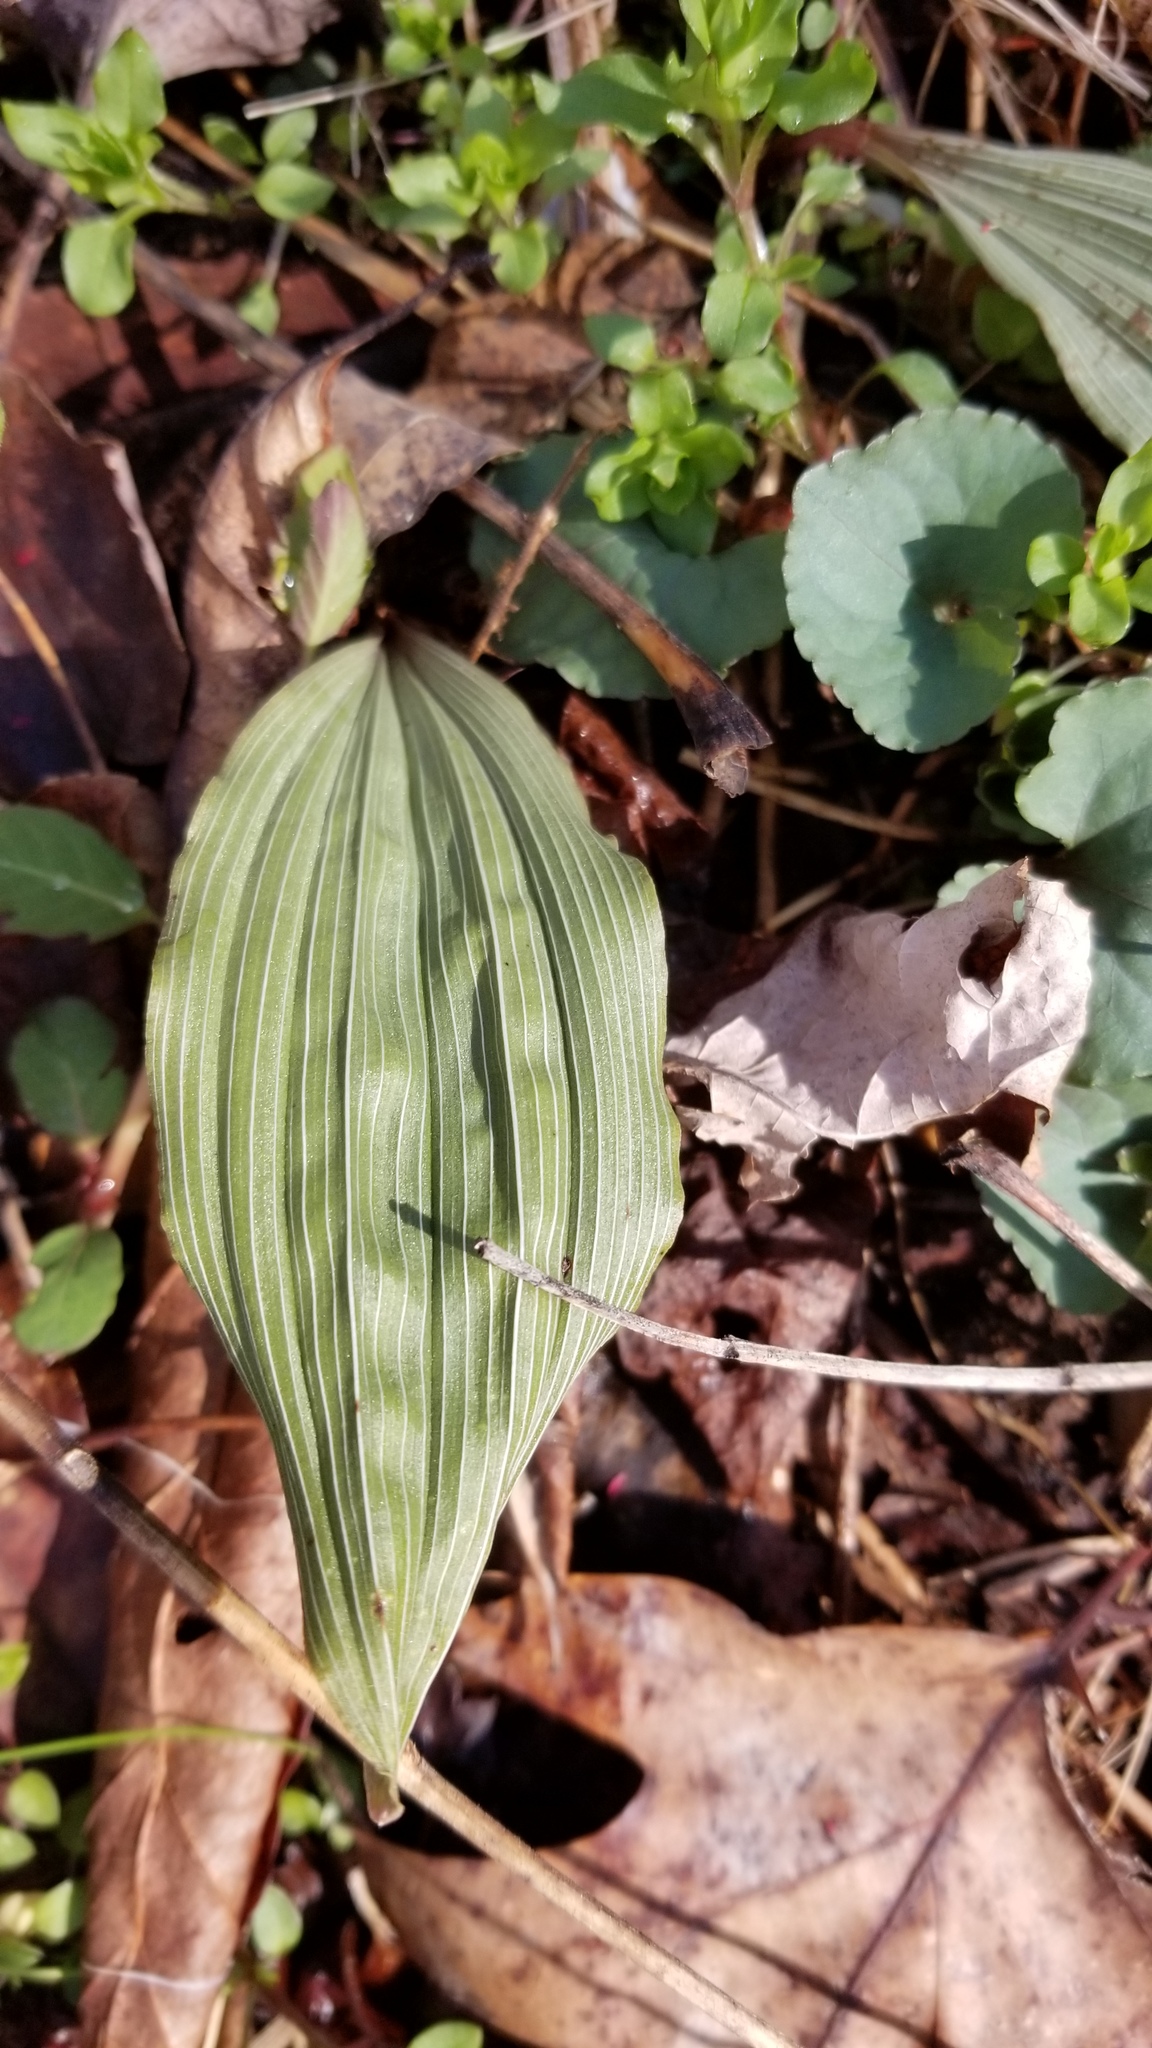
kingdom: Plantae
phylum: Tracheophyta
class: Liliopsida
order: Asparagales
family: Orchidaceae
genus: Aplectrum
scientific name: Aplectrum hyemale
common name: Adam-and-eve
